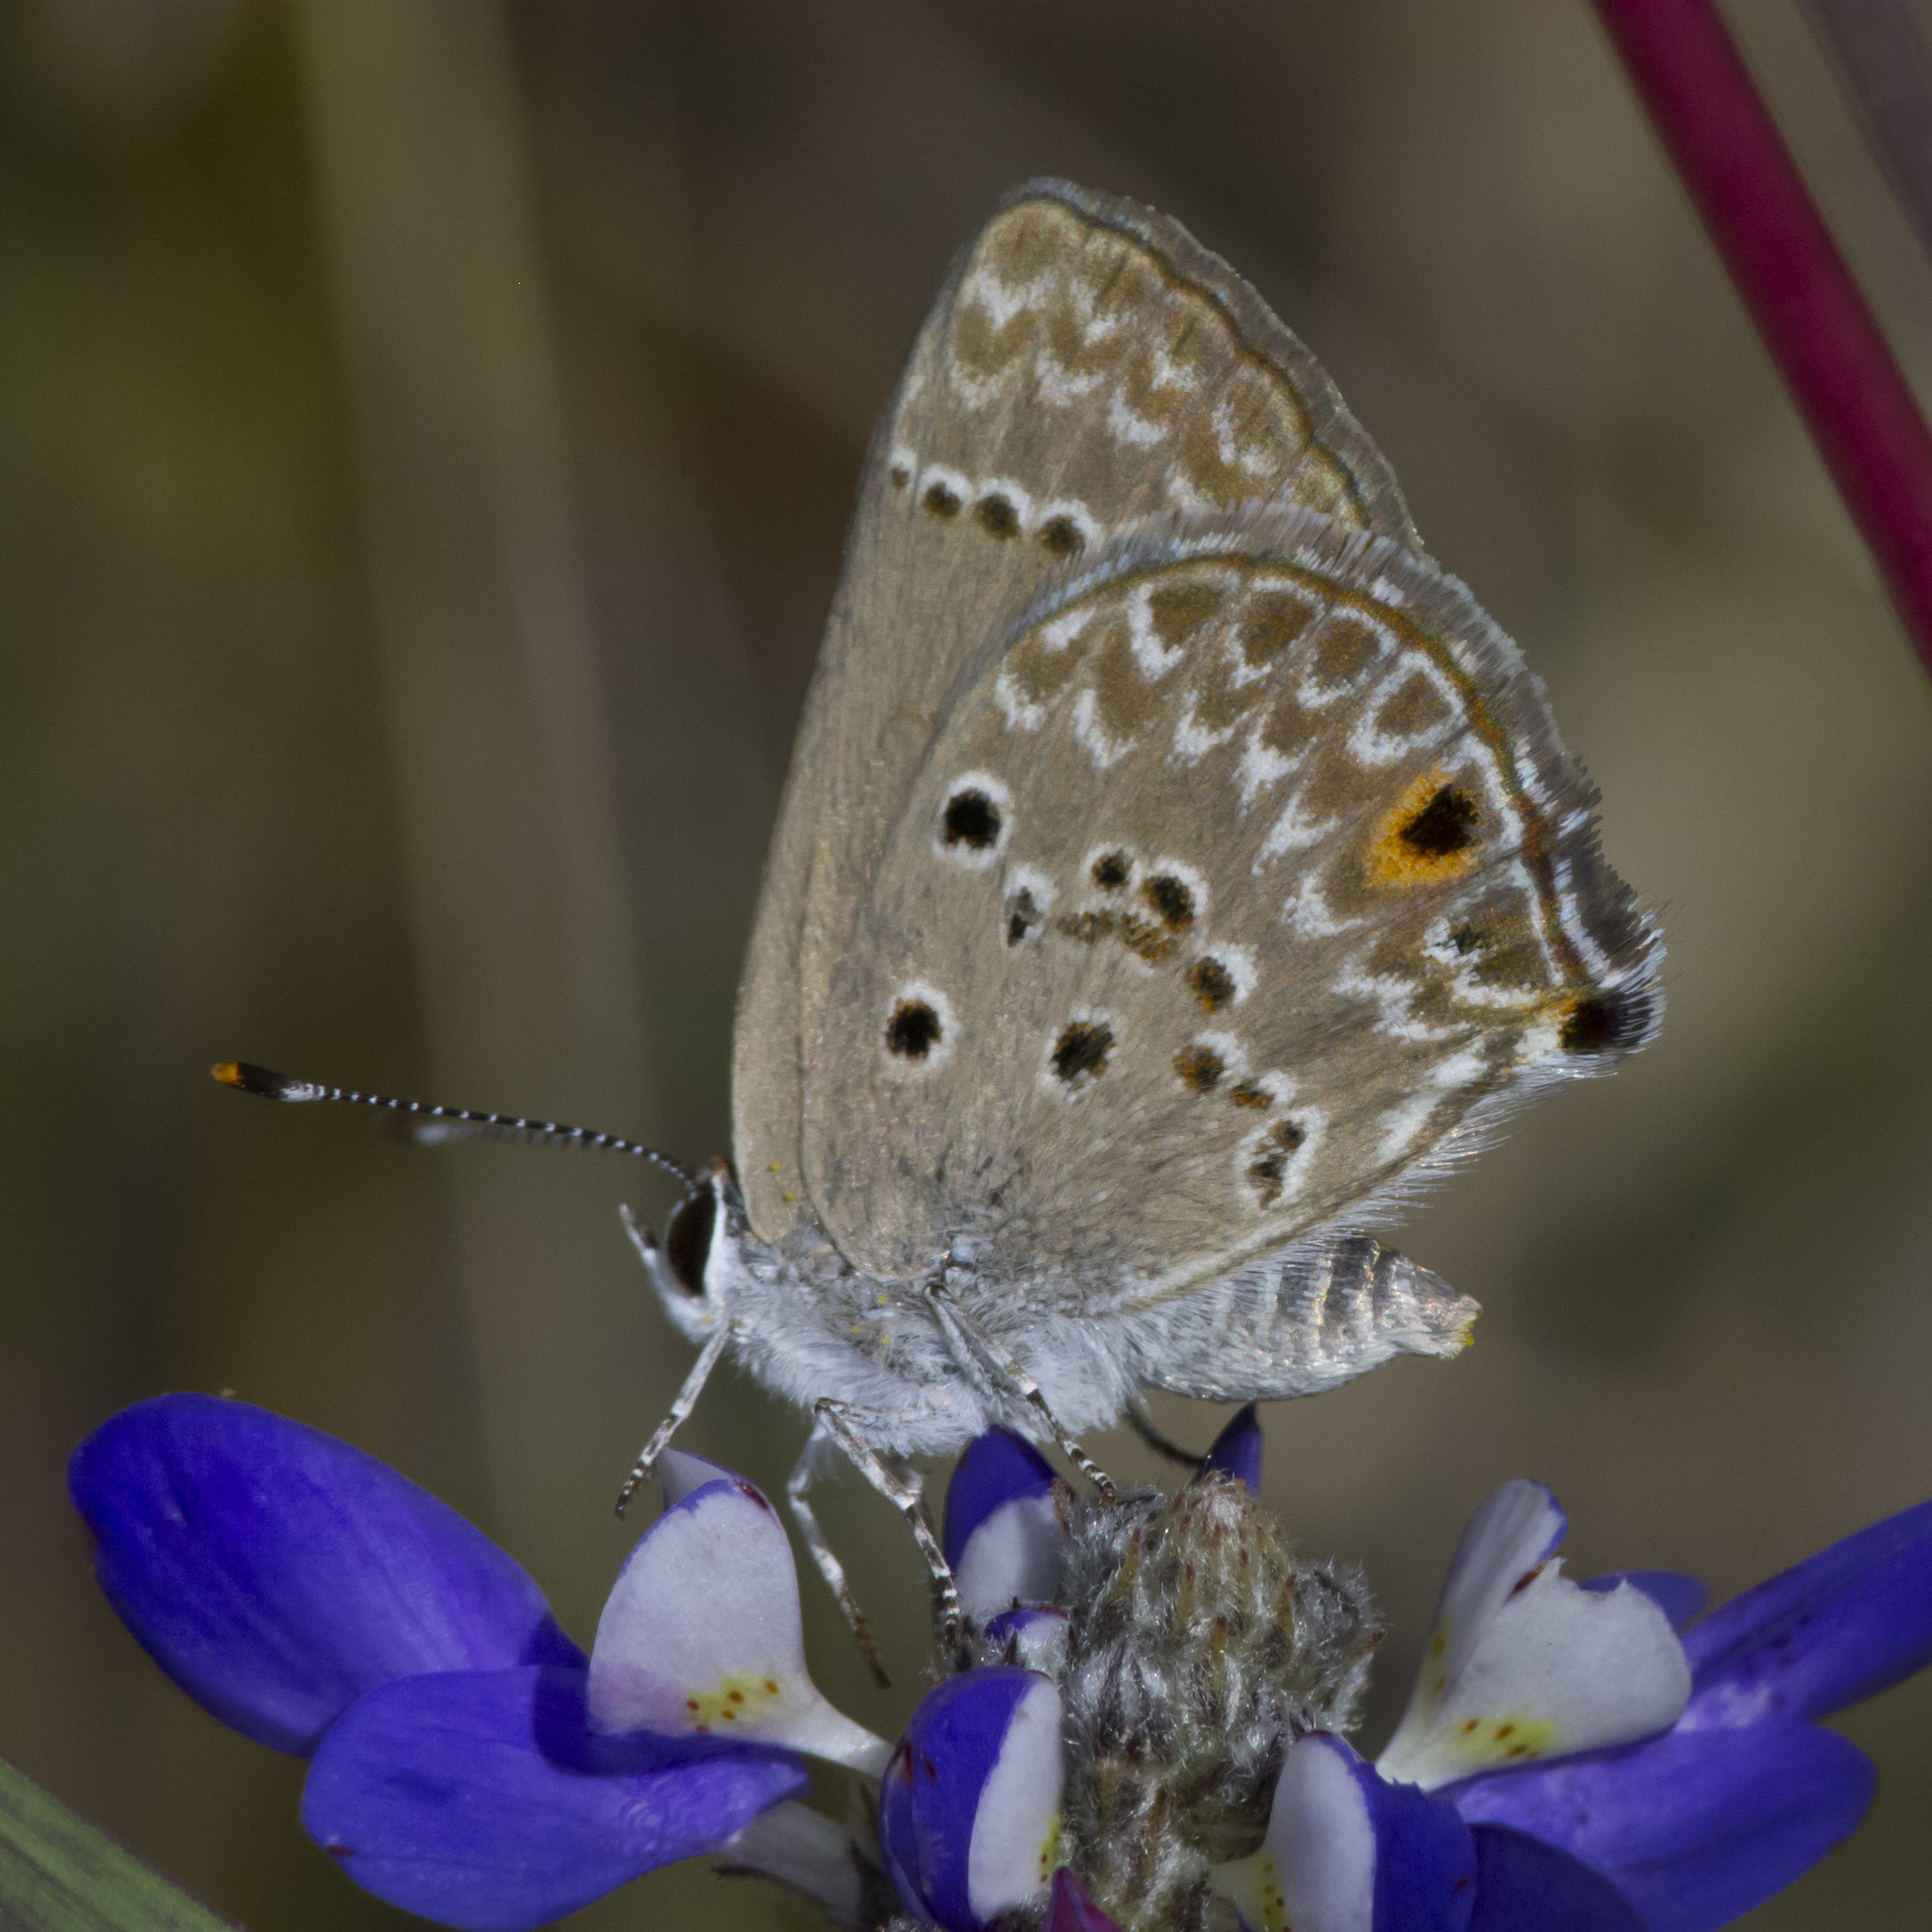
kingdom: Animalia
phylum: Arthropoda
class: Insecta
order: Lepidoptera
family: Lycaenidae
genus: Strymon
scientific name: Strymon bubastus
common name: Bubastes hairstreak
